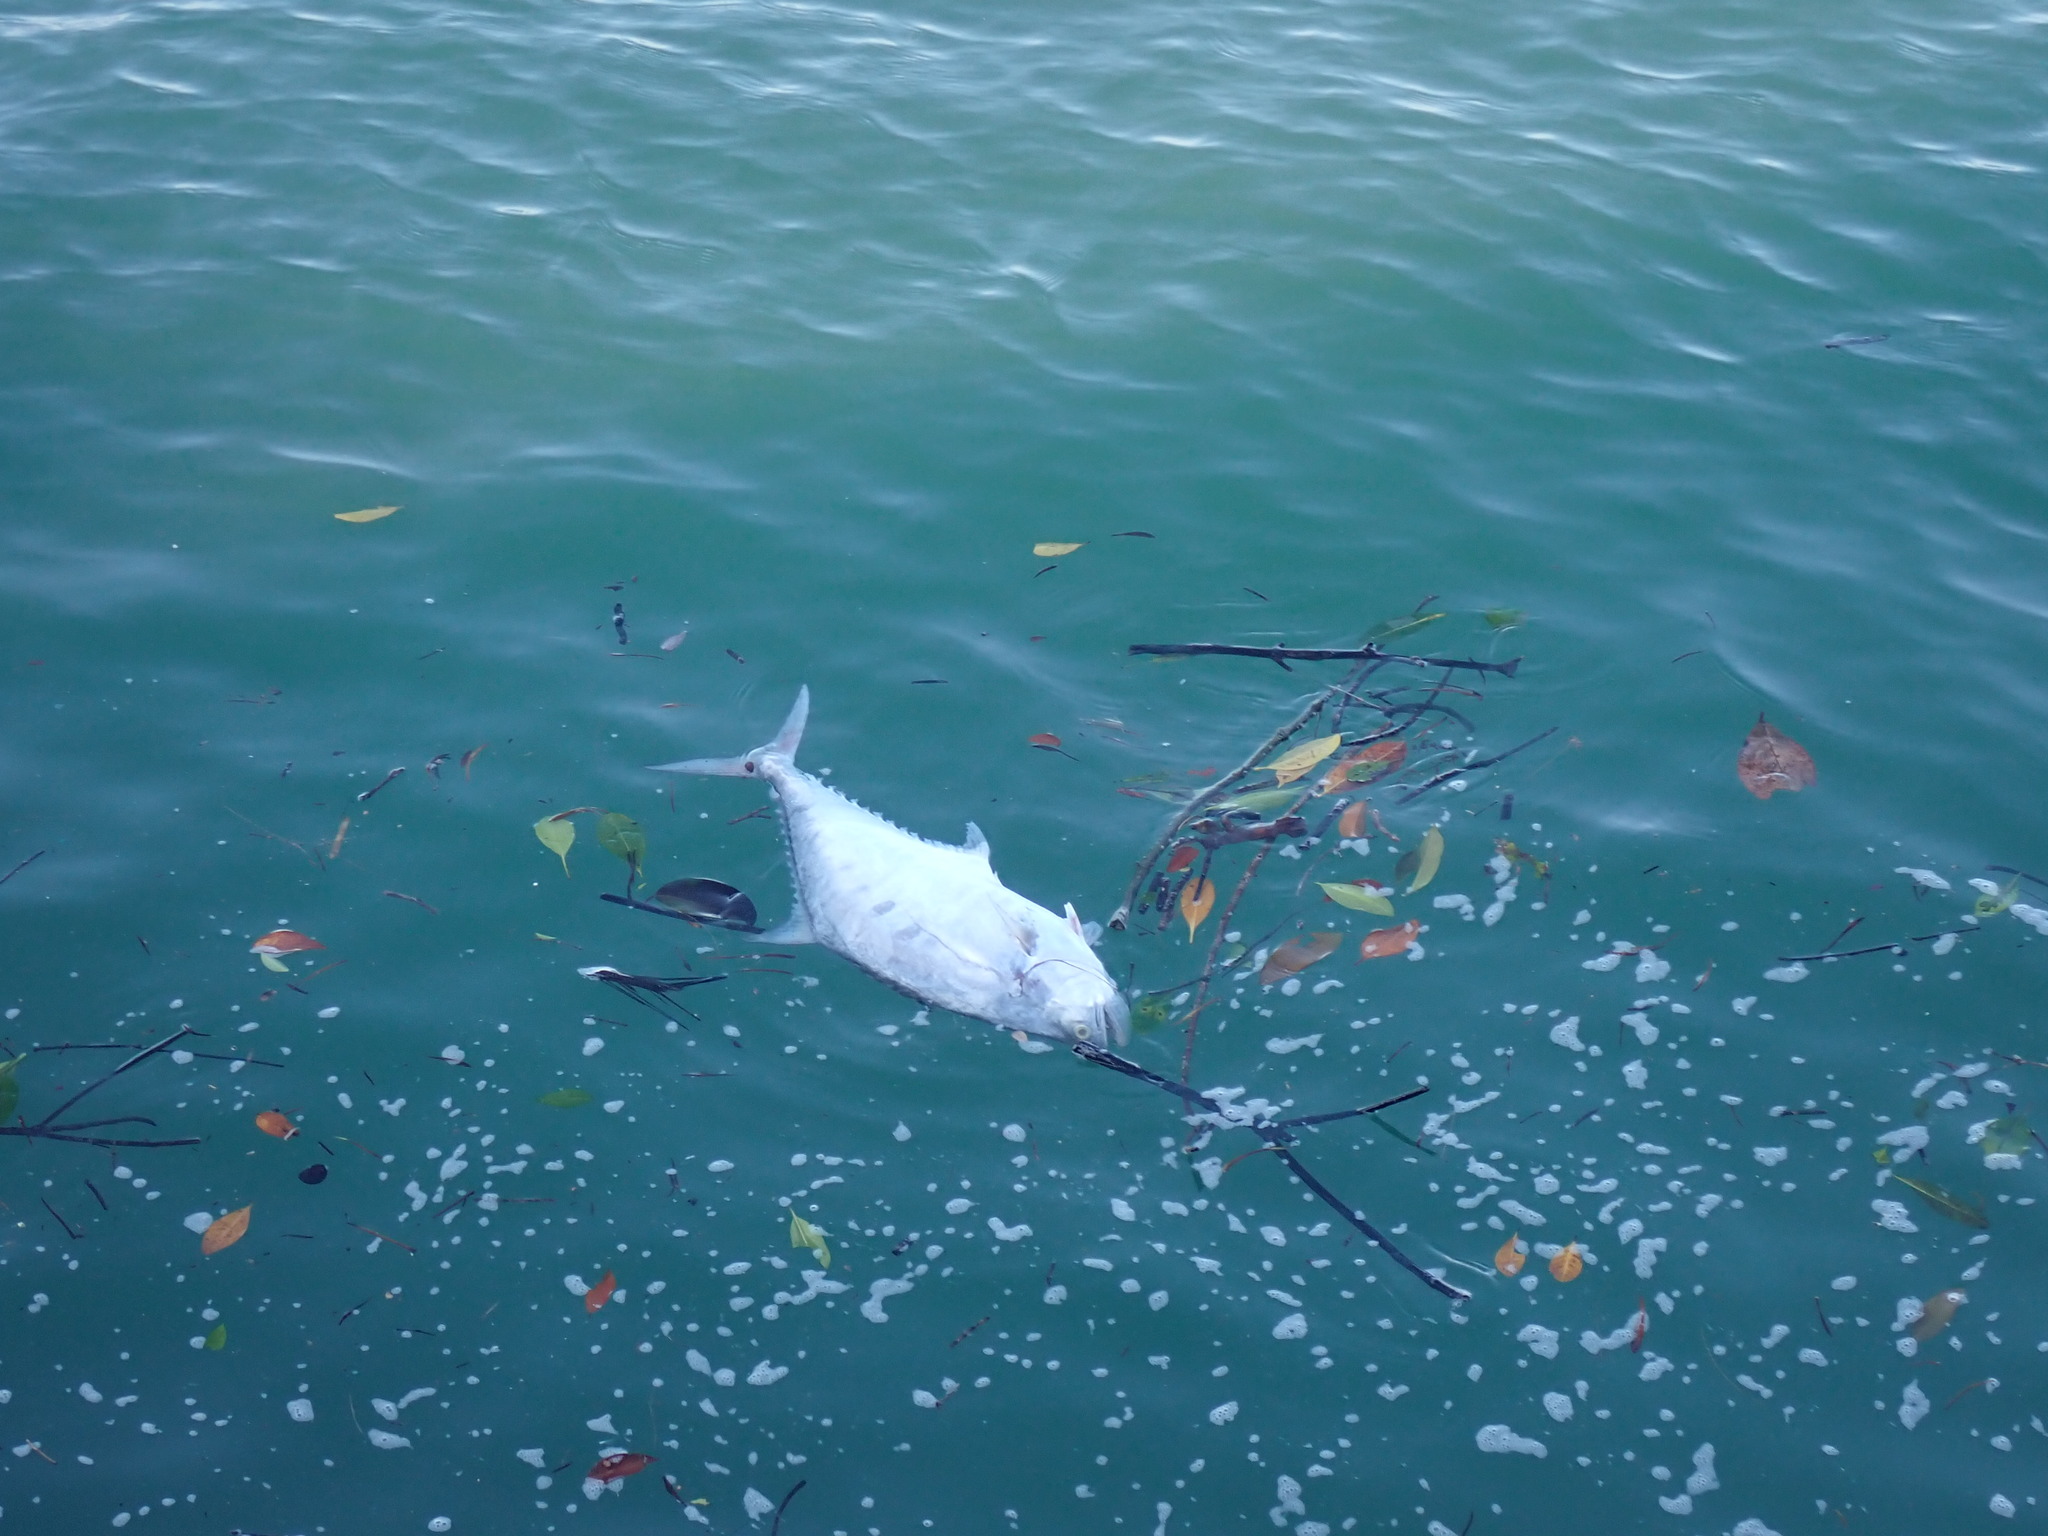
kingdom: Animalia
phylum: Chordata
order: Perciformes
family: Carangidae
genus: Scomberoides
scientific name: Scomberoides commersonnianus
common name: Talang queenfish
